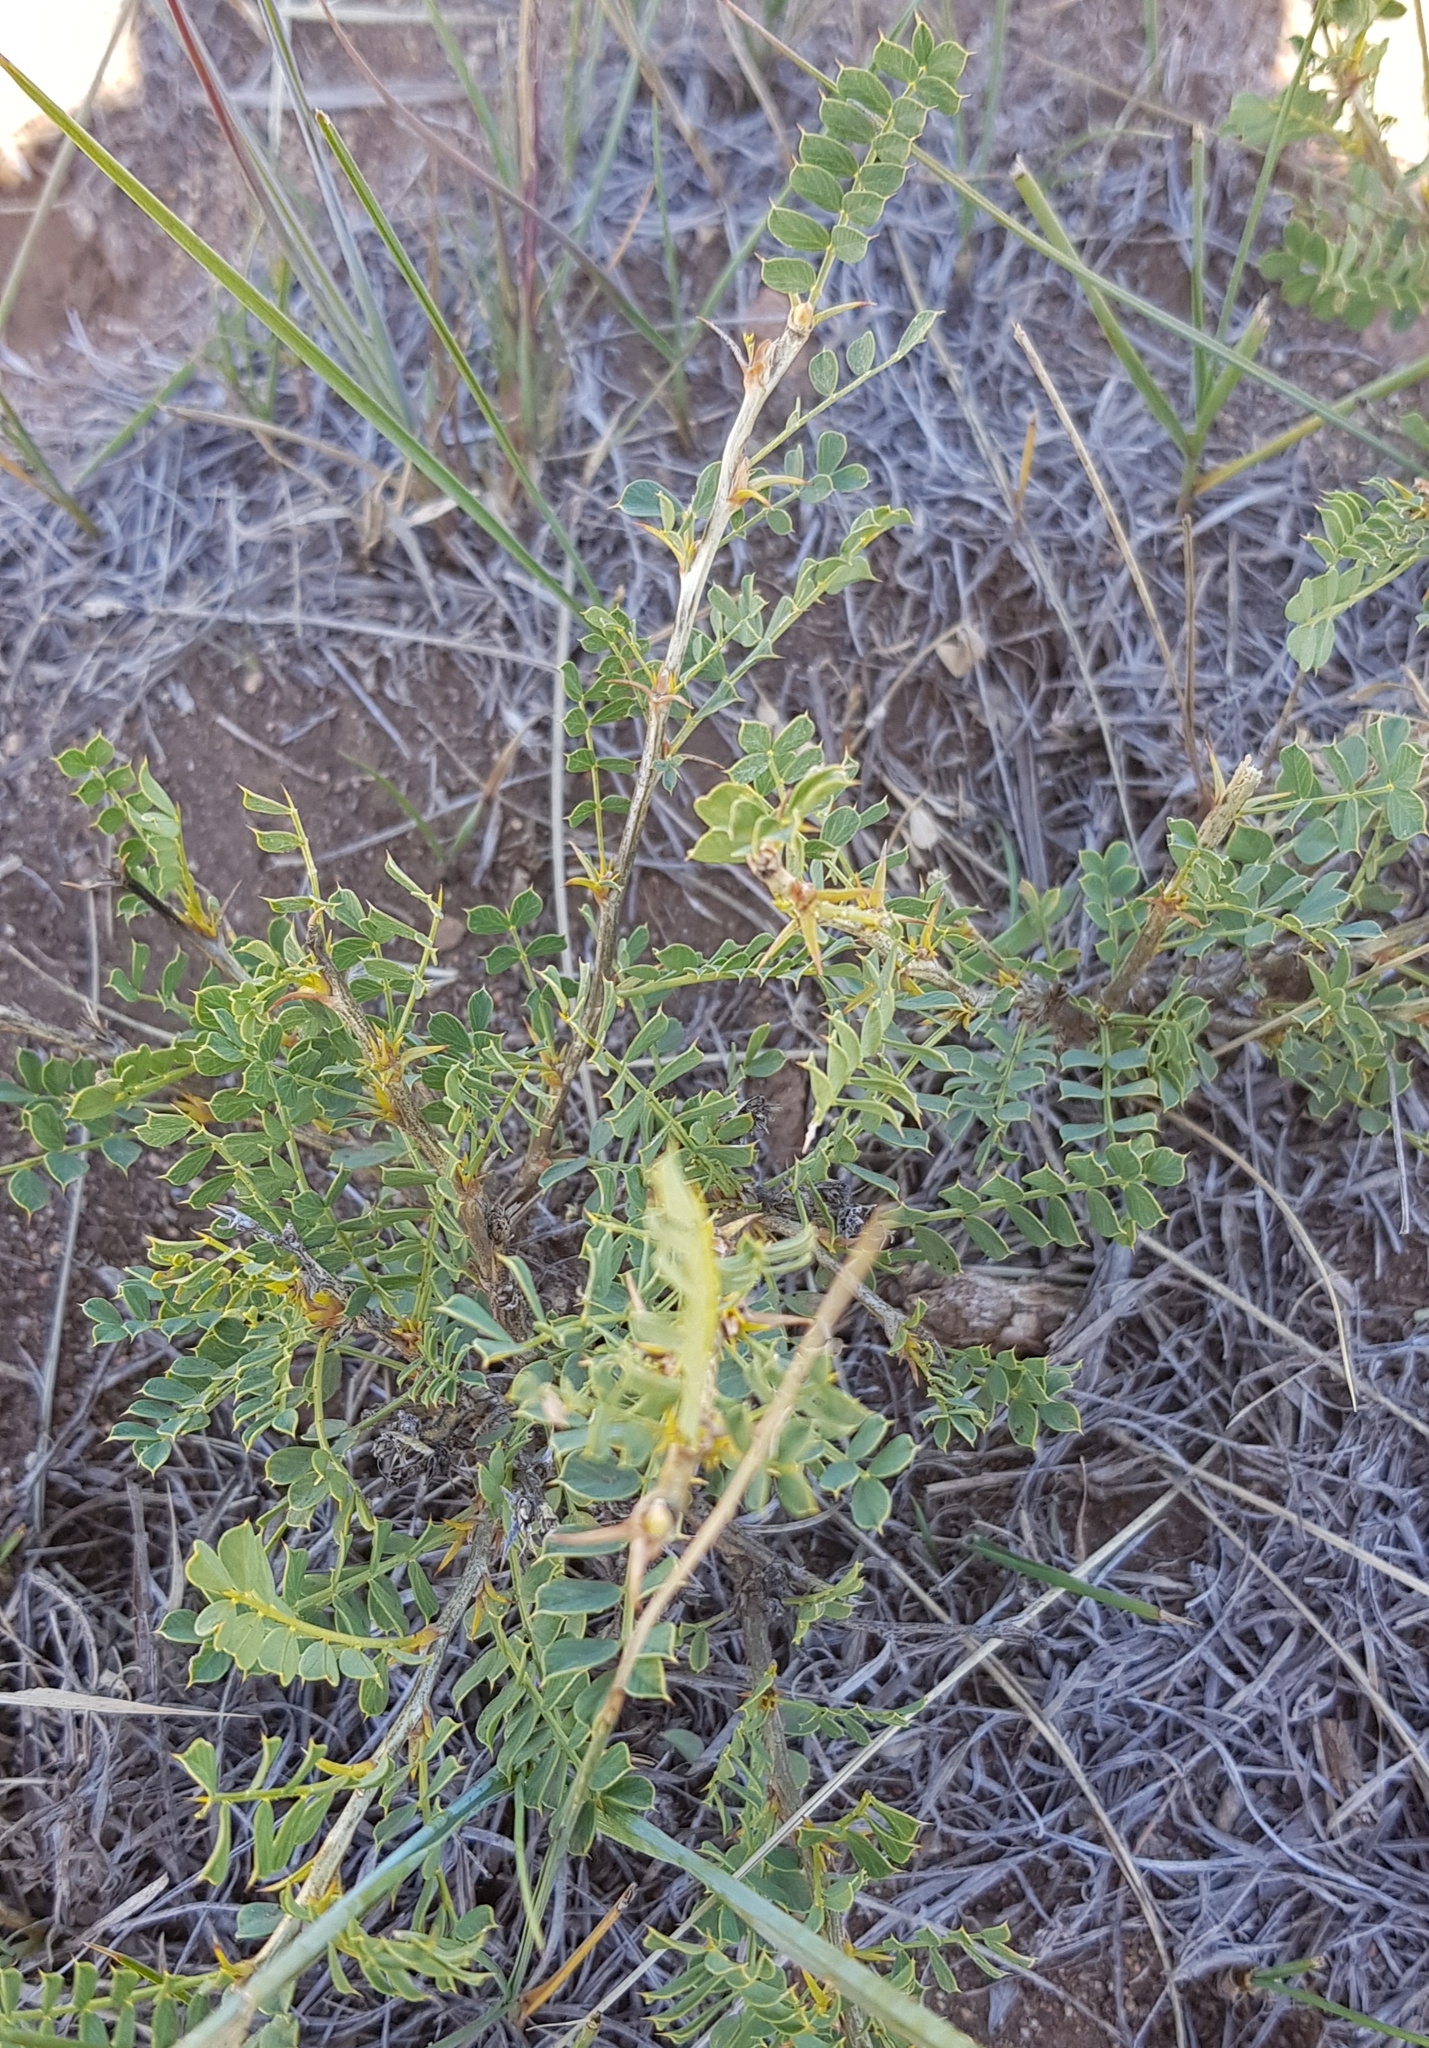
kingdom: Plantae
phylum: Tracheophyta
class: Magnoliopsida
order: Fabales
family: Fabaceae
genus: Caragana
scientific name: Caragana microphylla
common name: Littleleaf peashrub
